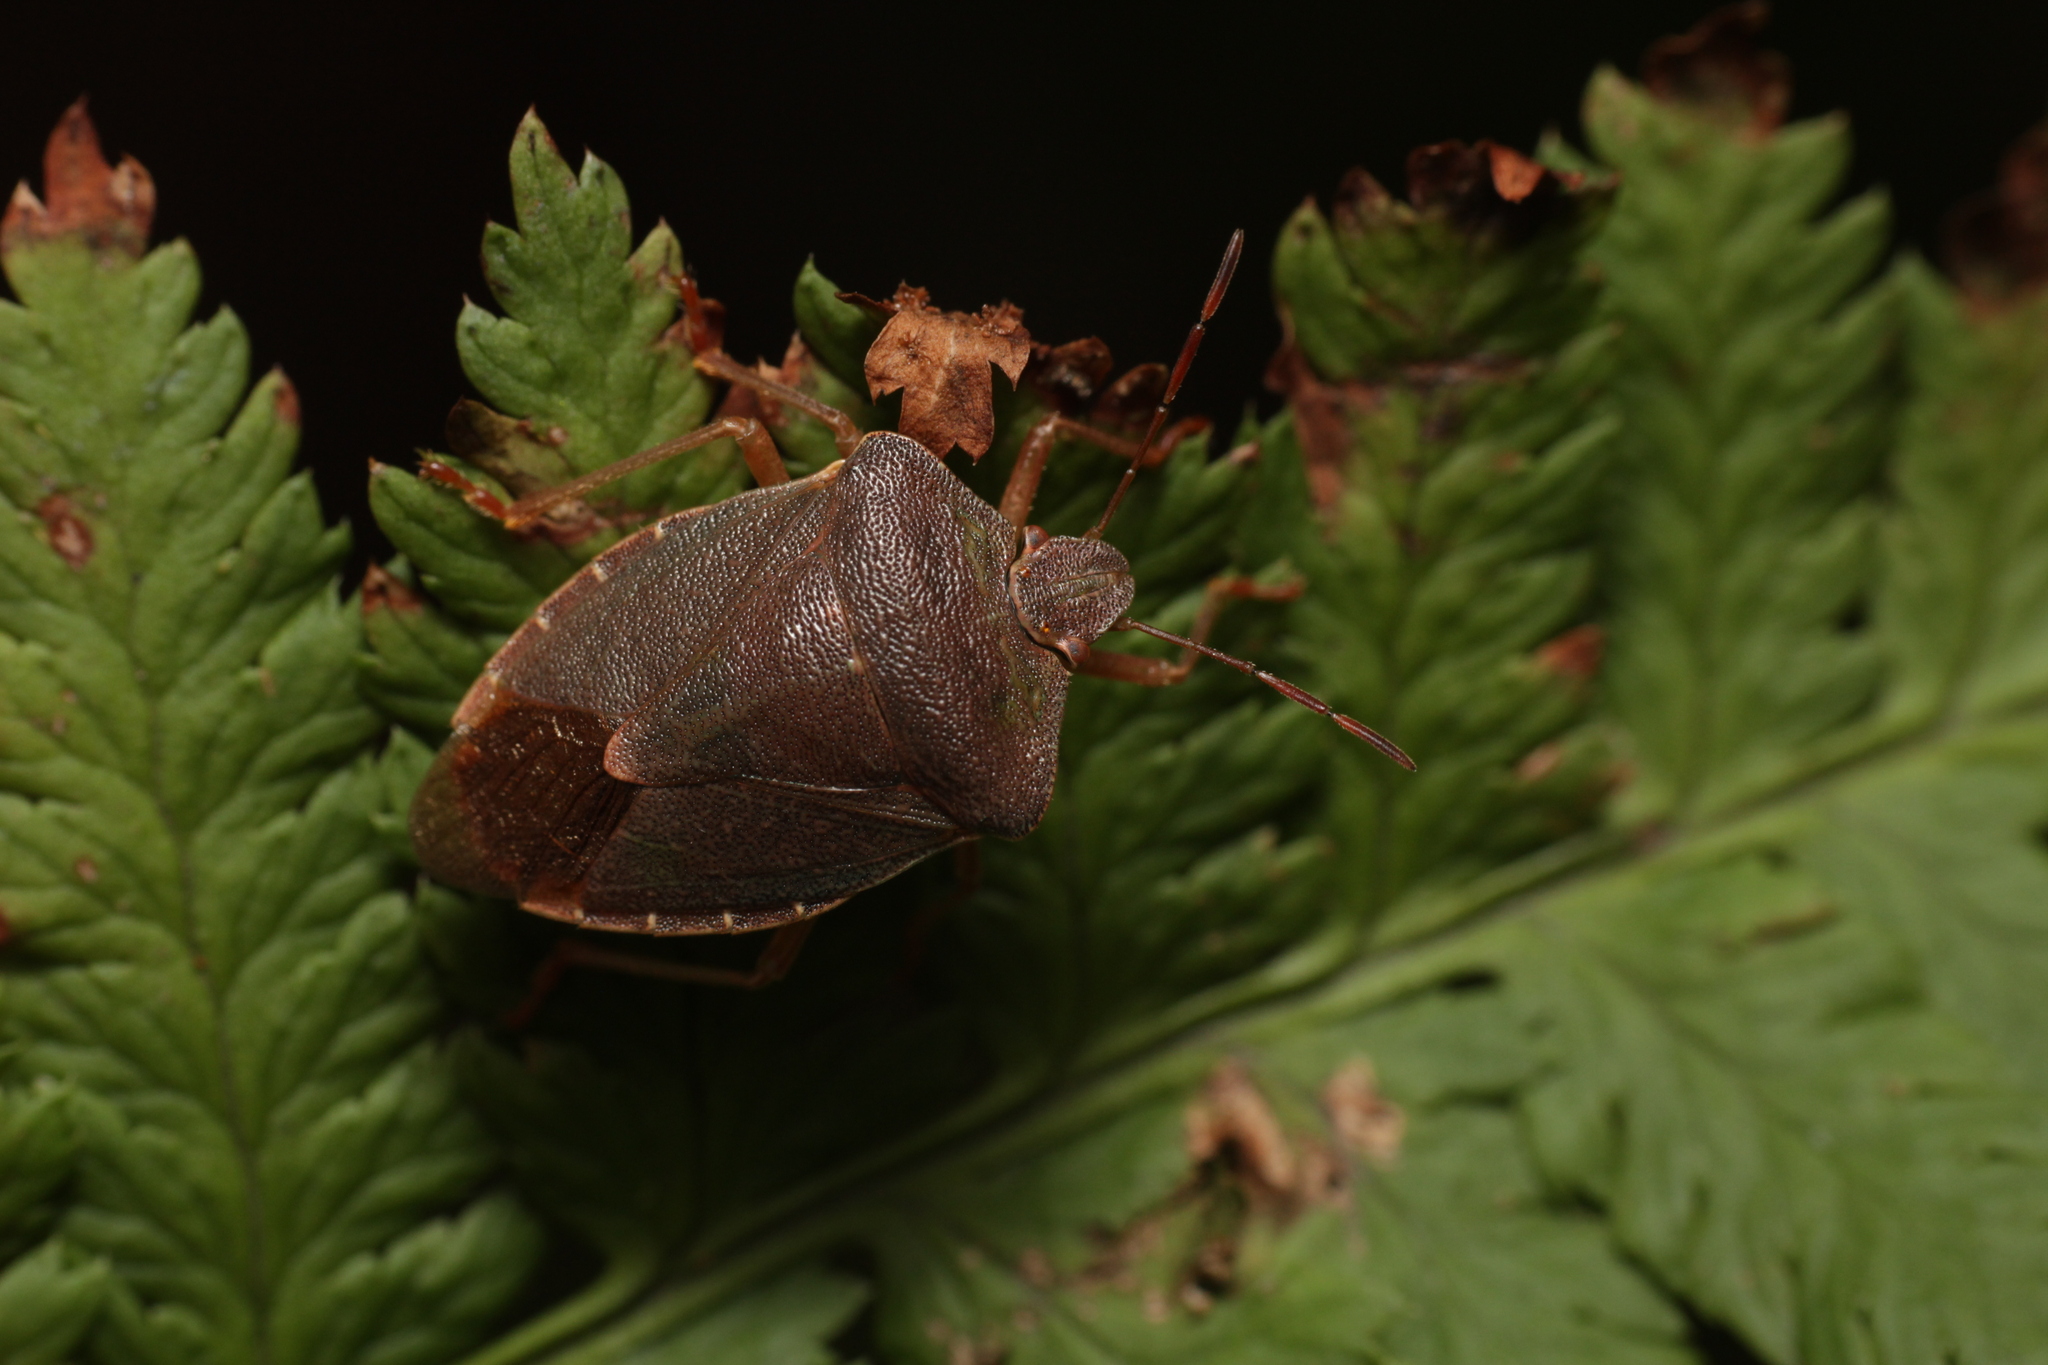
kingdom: Animalia
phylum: Arthropoda
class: Insecta
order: Hemiptera
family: Pentatomidae
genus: Palomena
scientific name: Palomena prasina
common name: Green shieldbug
